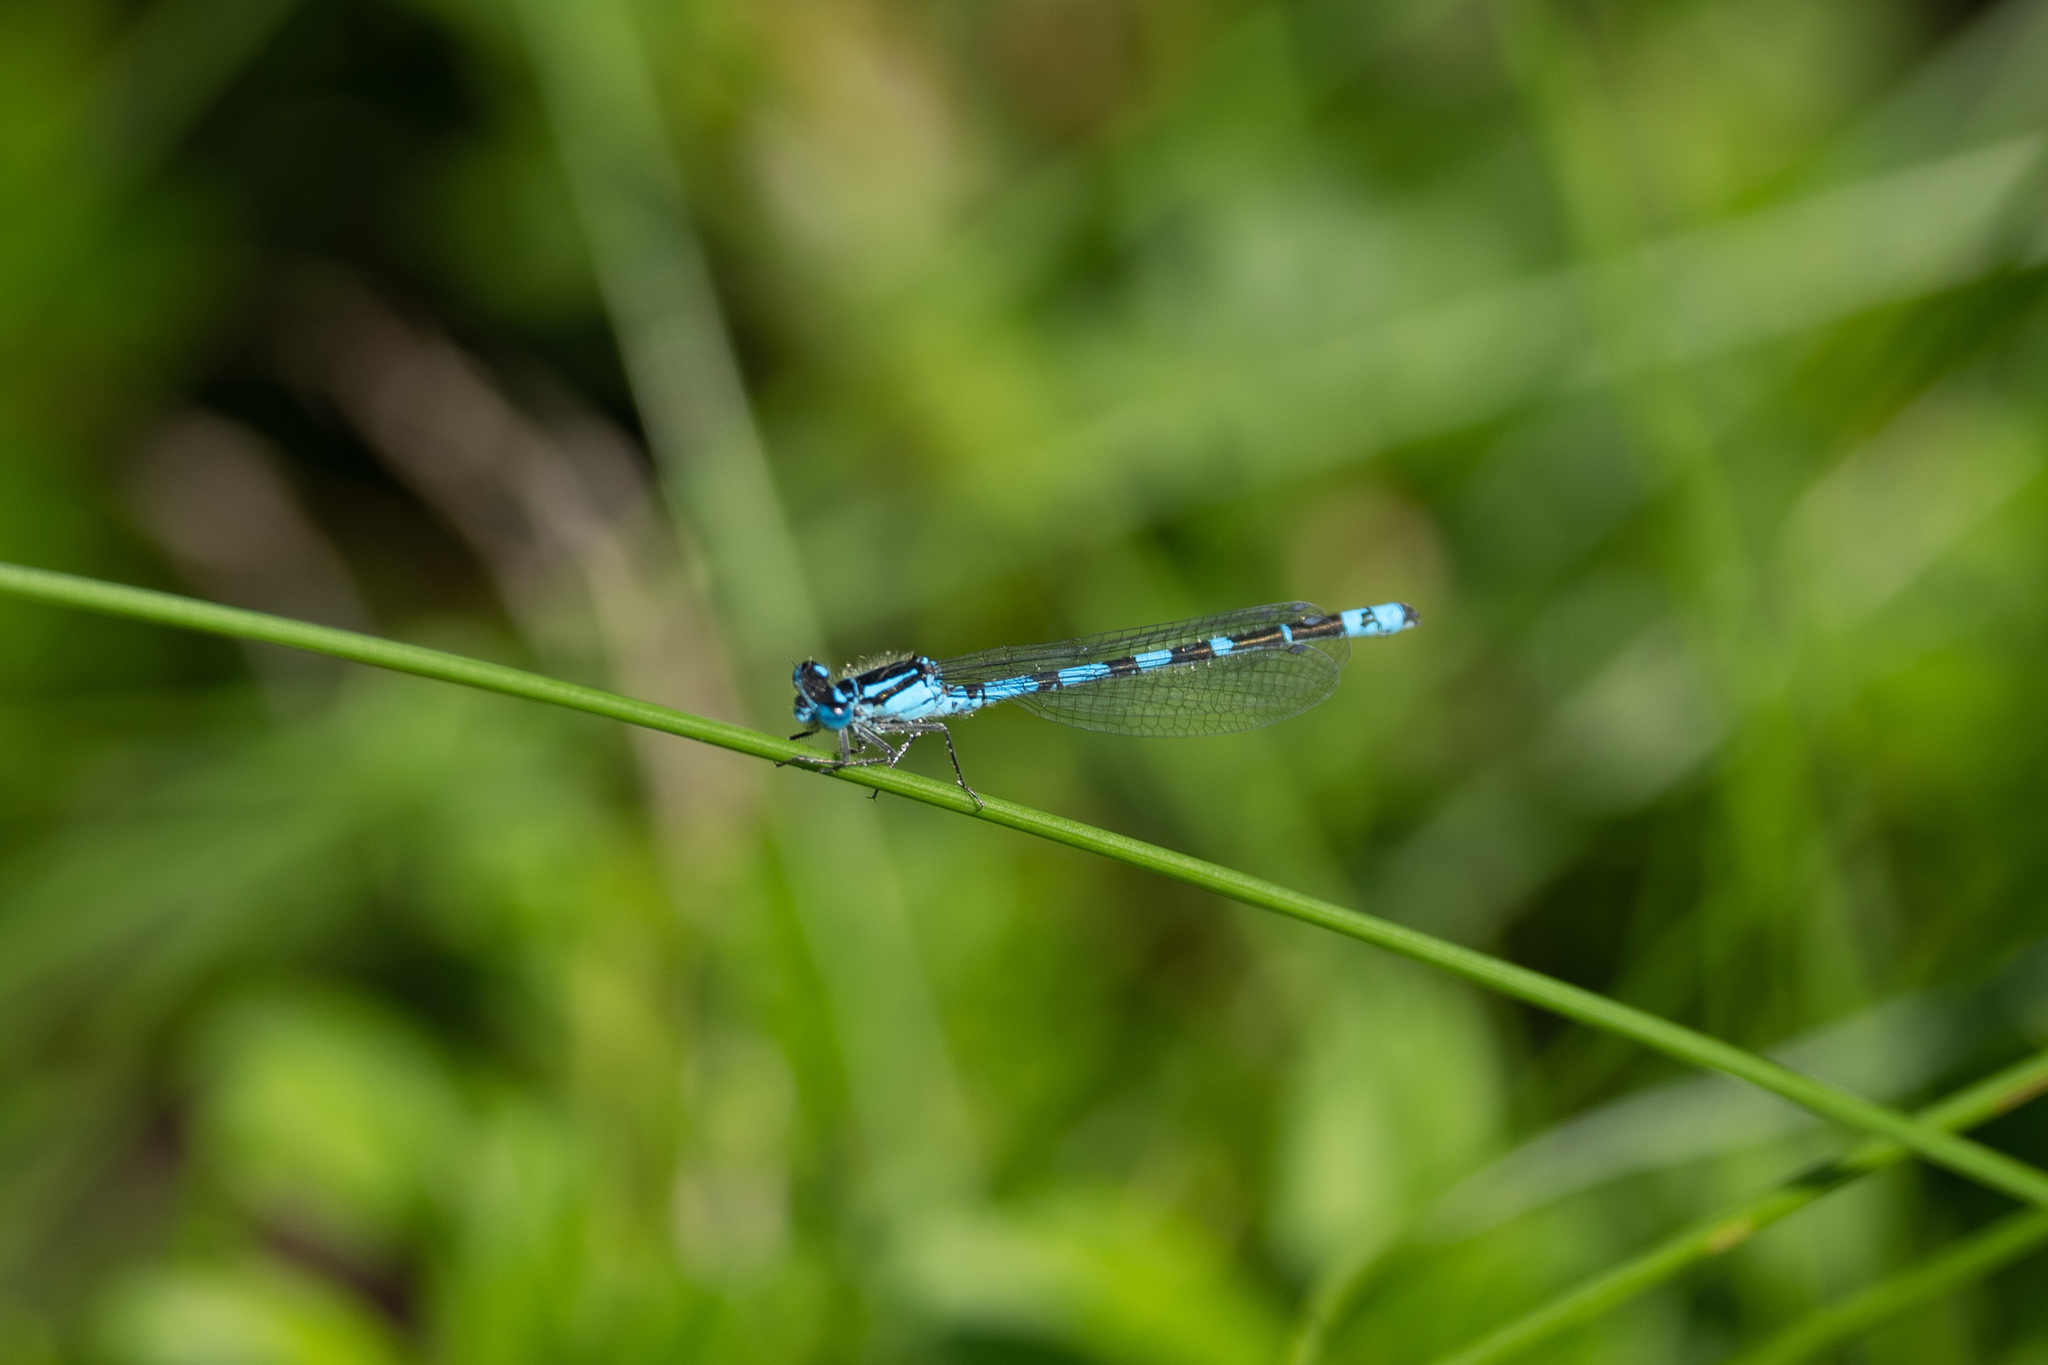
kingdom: Animalia
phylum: Arthropoda
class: Insecta
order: Odonata
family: Coenagrionidae
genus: Enallagma
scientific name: Enallagma cyathigerum
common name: Common blue damselfly
